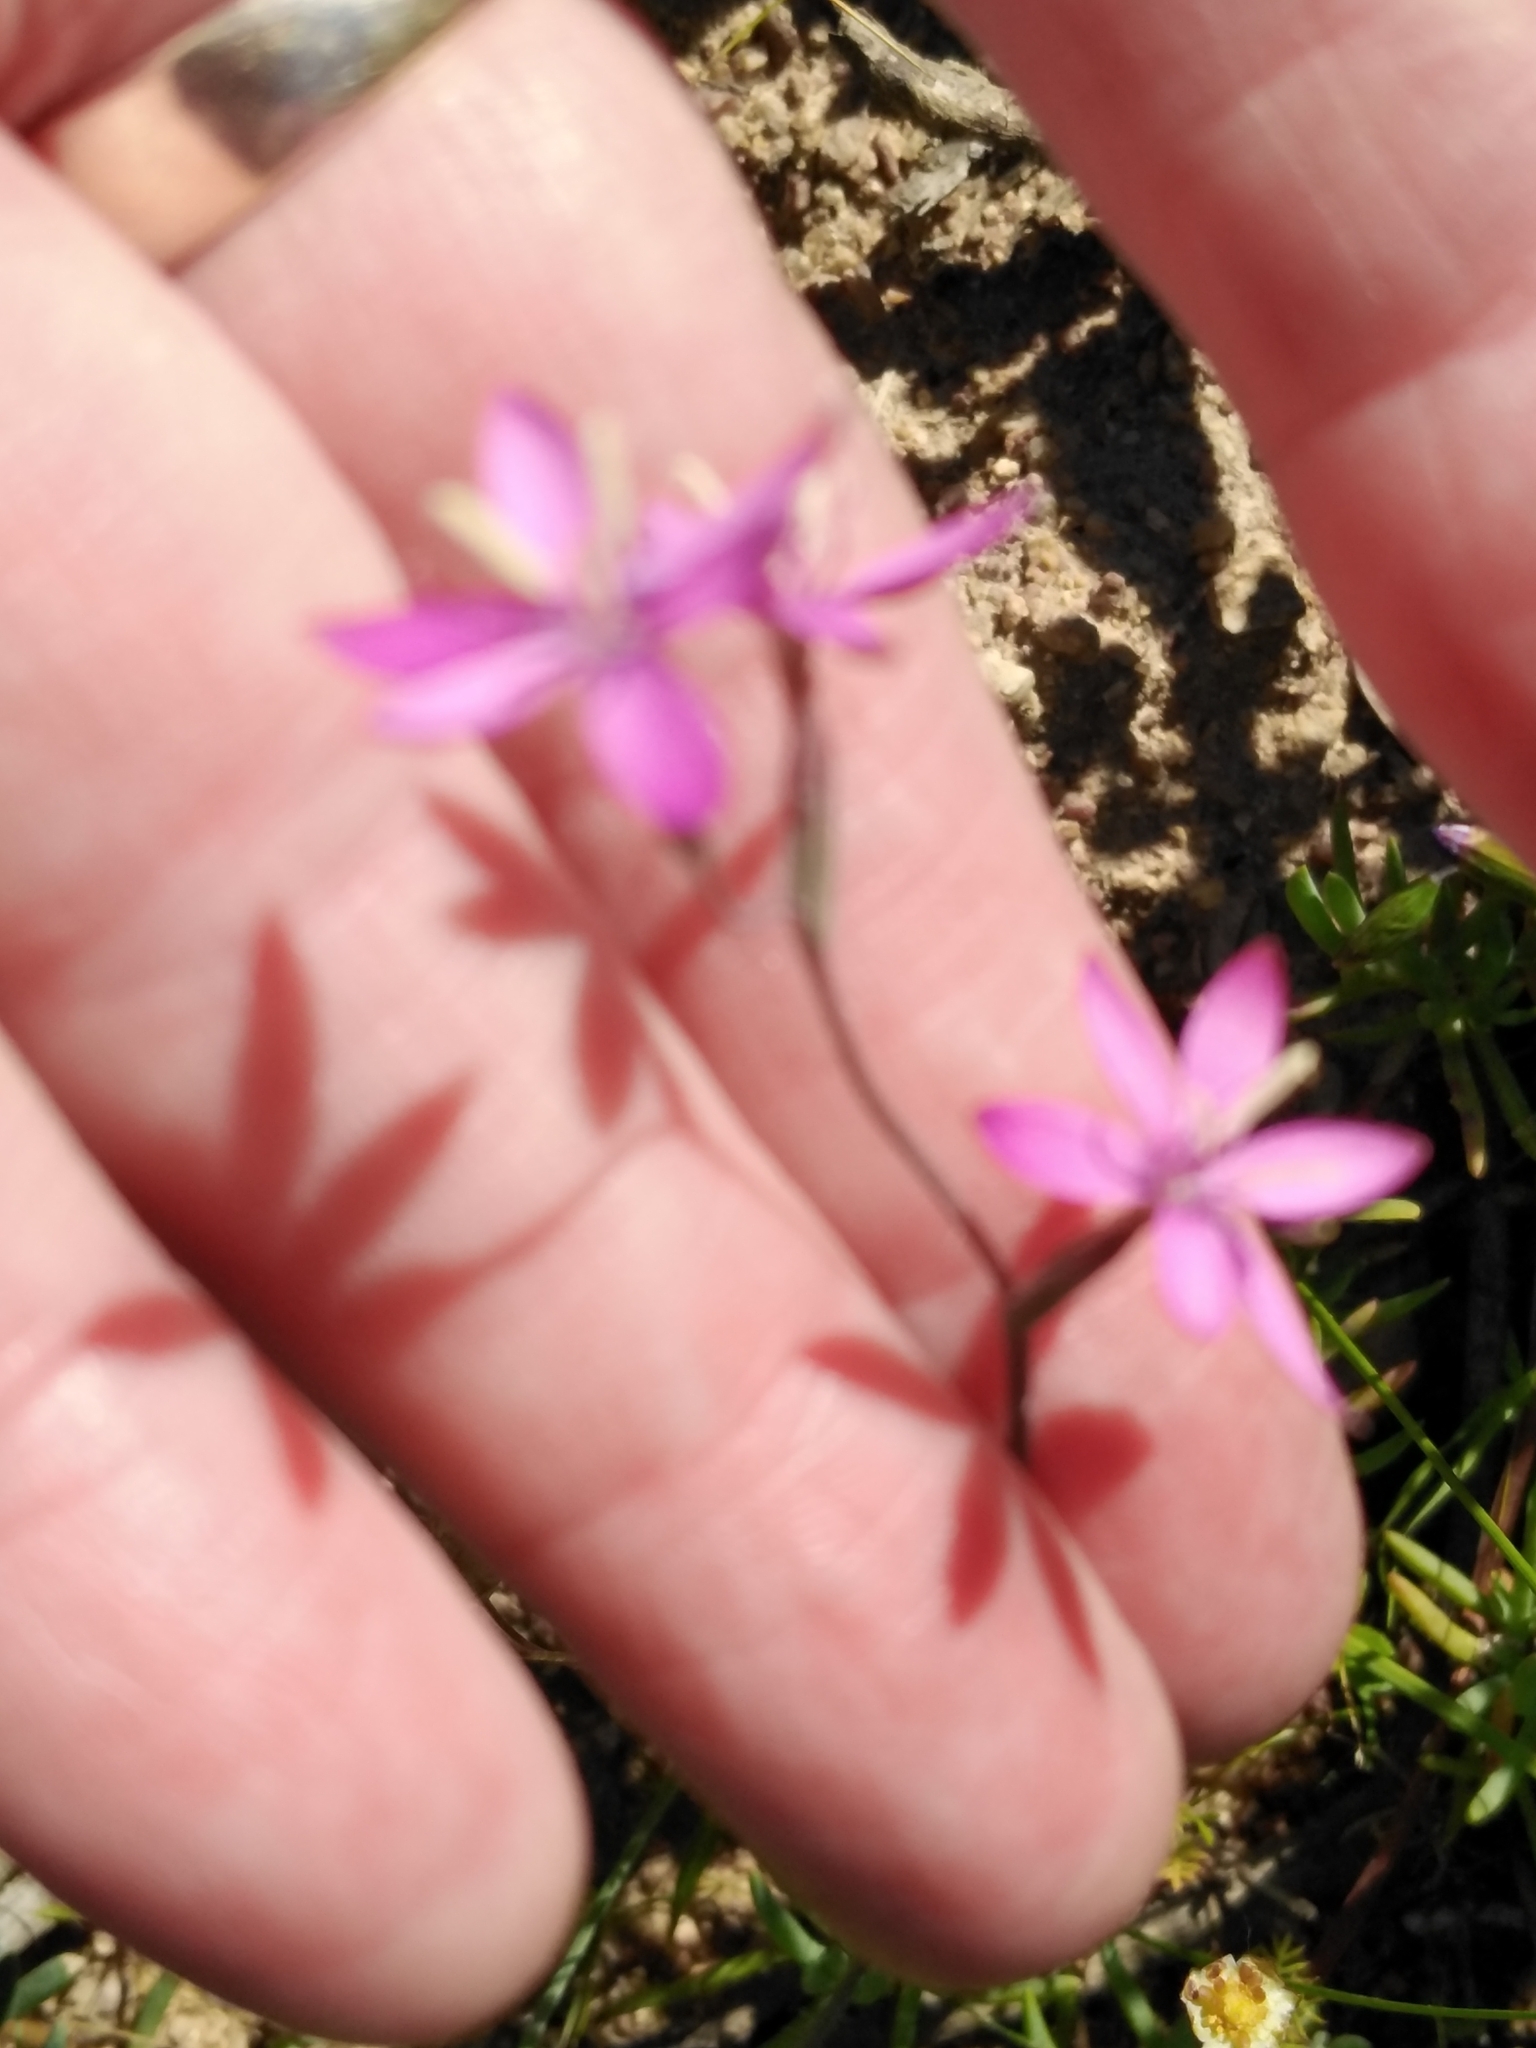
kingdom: Plantae
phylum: Tracheophyta
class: Liliopsida
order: Asparagales
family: Iridaceae
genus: Hesperantha
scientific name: Hesperantha pilosa
